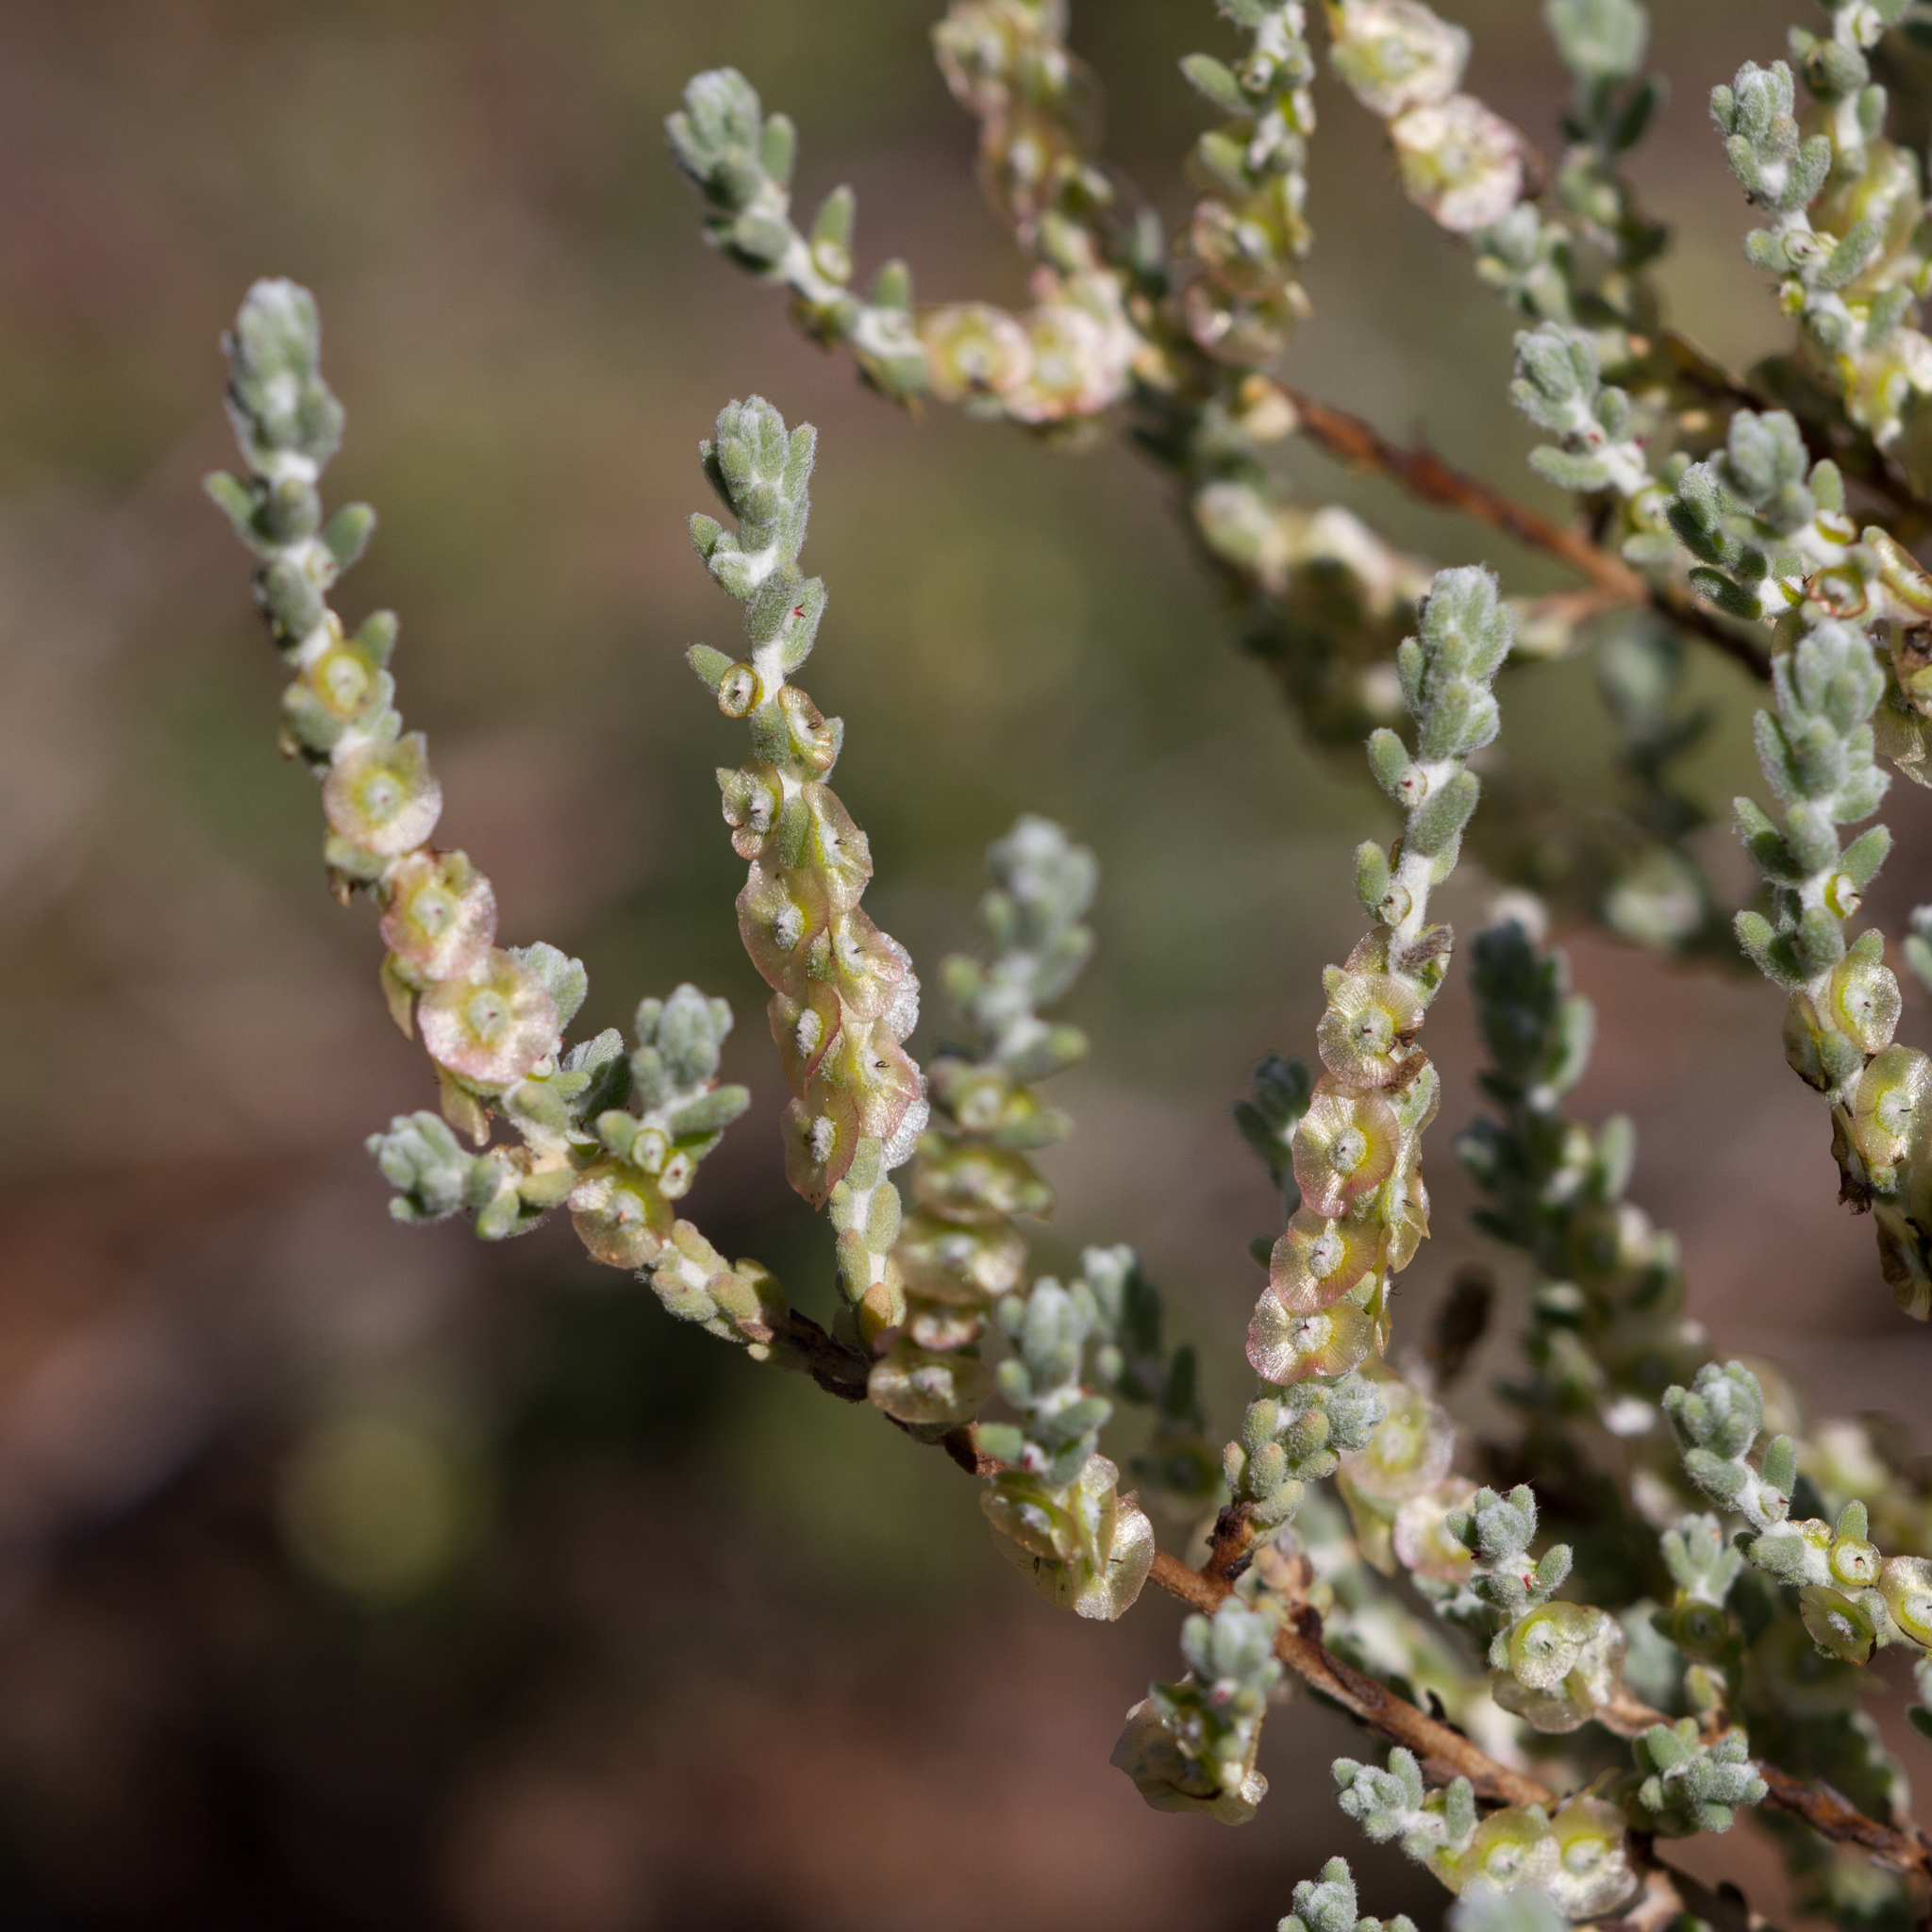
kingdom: Plantae
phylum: Tracheophyta
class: Magnoliopsida
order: Caryophyllales
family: Amaranthaceae
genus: Maireana
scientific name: Maireana radiata
